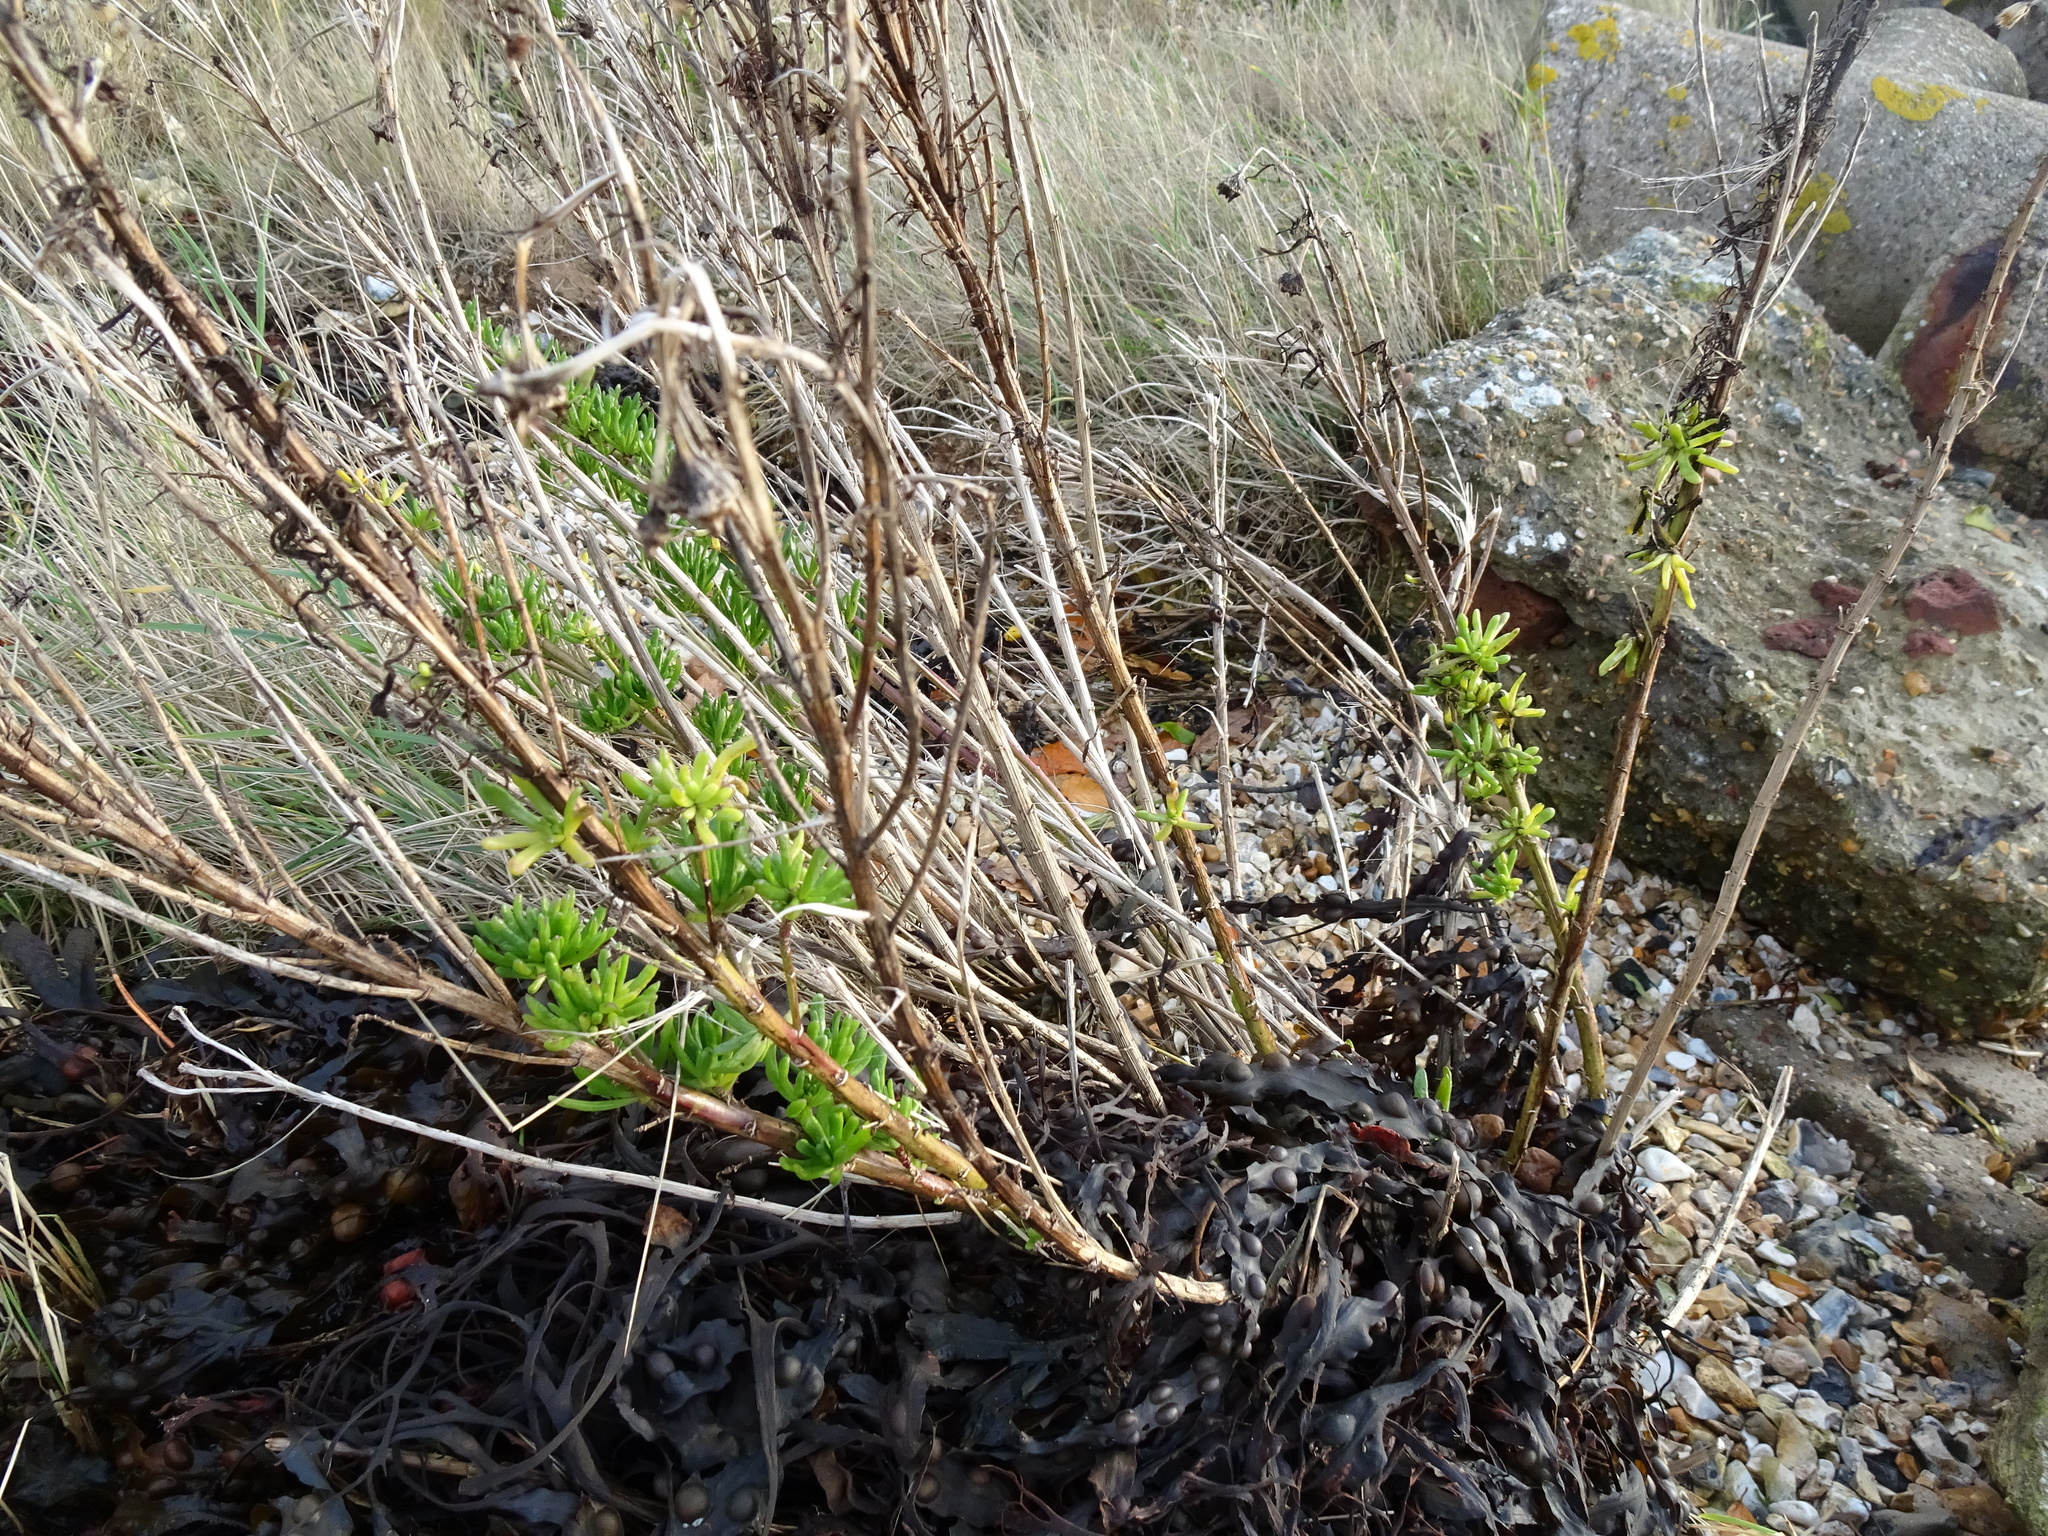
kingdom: Plantae
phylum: Tracheophyta
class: Magnoliopsida
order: Asterales
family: Asteraceae
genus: Limbarda
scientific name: Limbarda crithmoides
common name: Golden samphire
